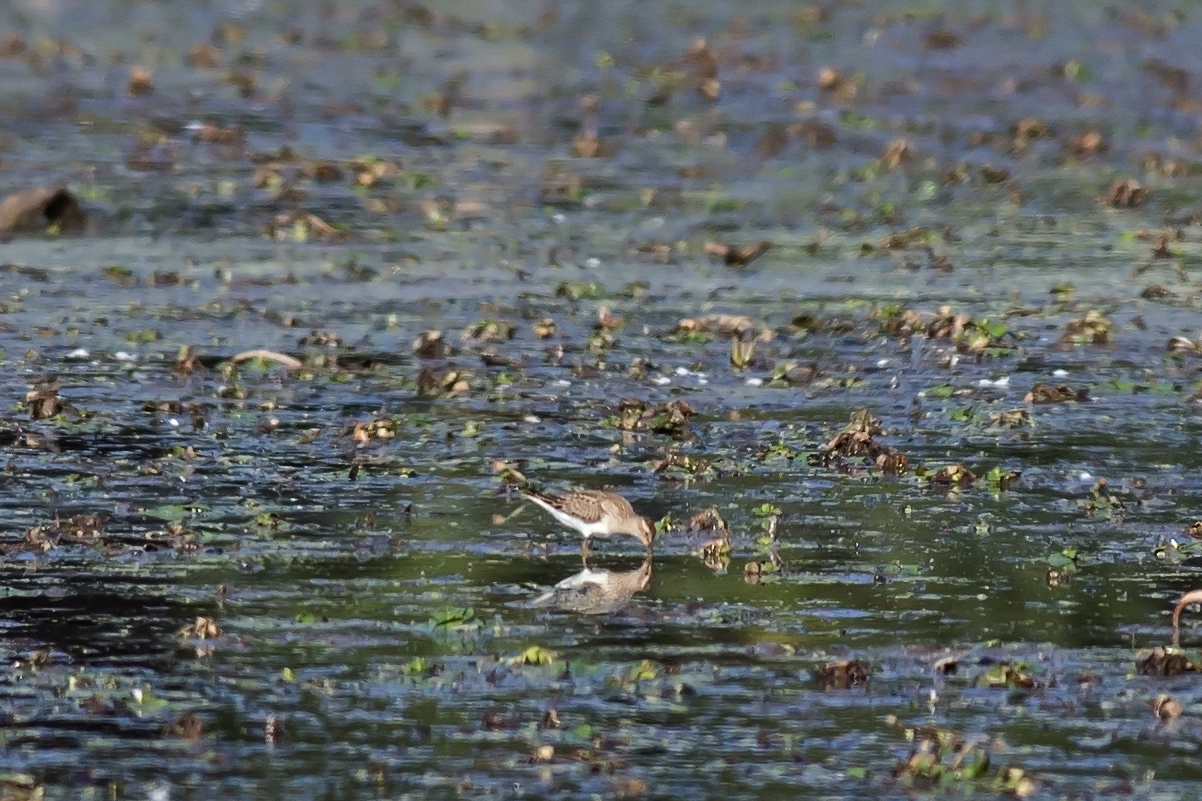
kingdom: Animalia
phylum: Chordata
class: Aves
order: Charadriiformes
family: Scolopacidae
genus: Calidris
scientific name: Calidris melanotos
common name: Pectoral sandpiper
